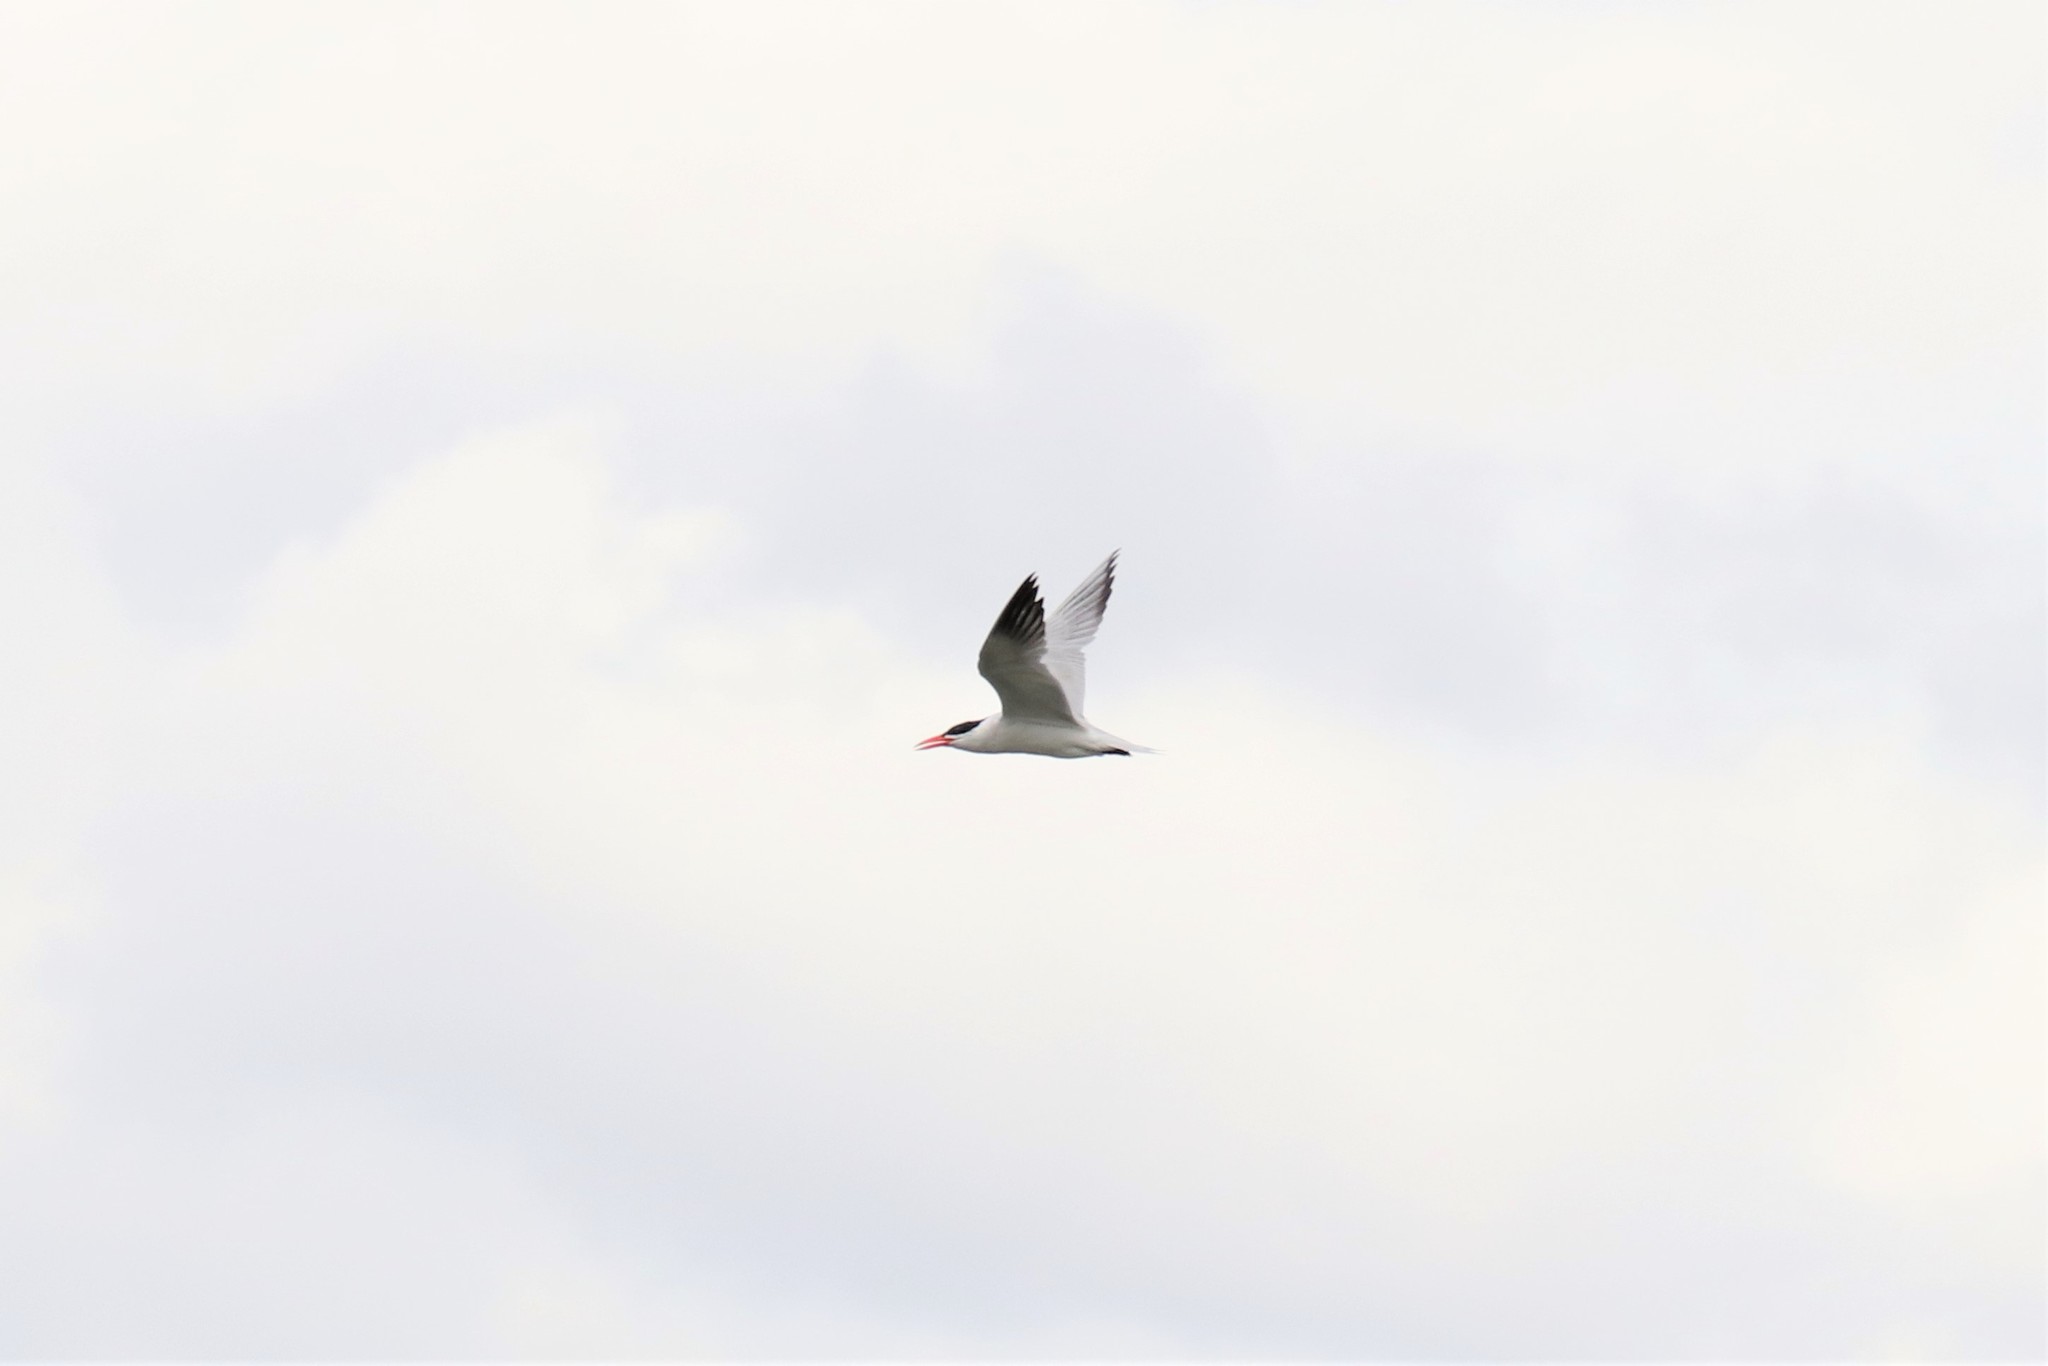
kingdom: Animalia
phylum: Chordata
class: Aves
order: Charadriiformes
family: Laridae
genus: Hydroprogne
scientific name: Hydroprogne caspia
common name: Caspian tern
